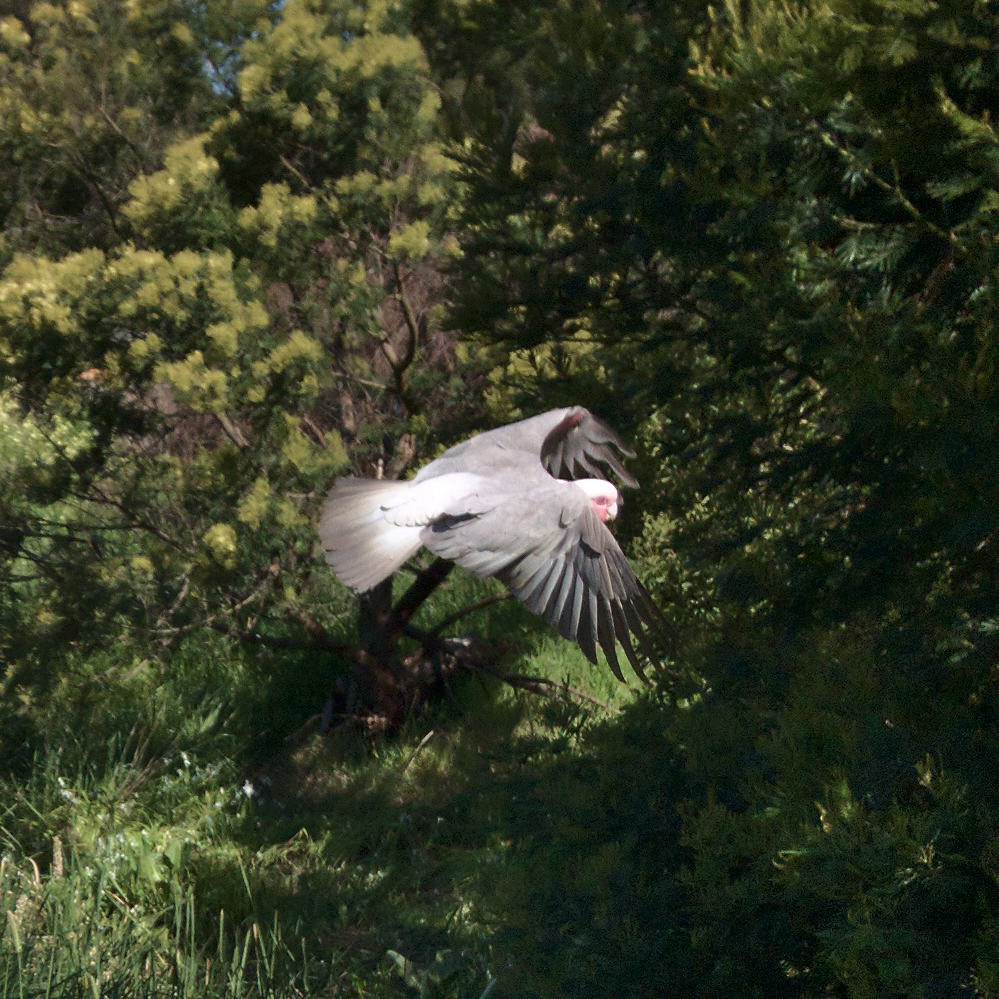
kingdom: Animalia
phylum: Chordata
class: Aves
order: Psittaciformes
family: Psittacidae
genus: Eolophus
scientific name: Eolophus roseicapilla
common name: Galah
